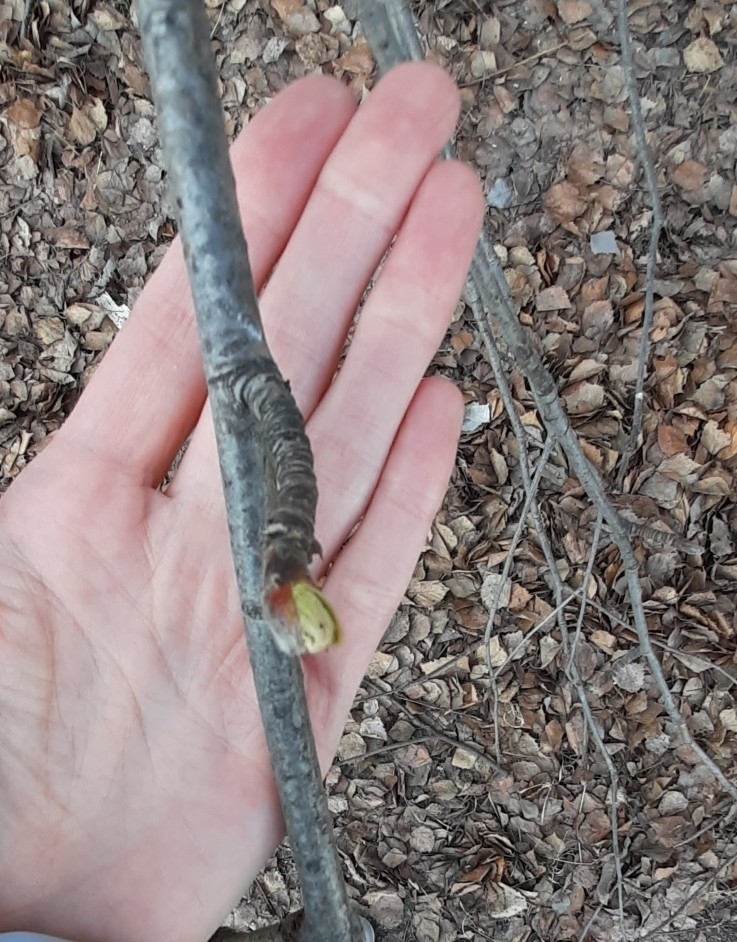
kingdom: Plantae
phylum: Tracheophyta
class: Magnoliopsida
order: Rosales
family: Rosaceae
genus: Sorbus
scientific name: Sorbus aucuparia
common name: Rowan
